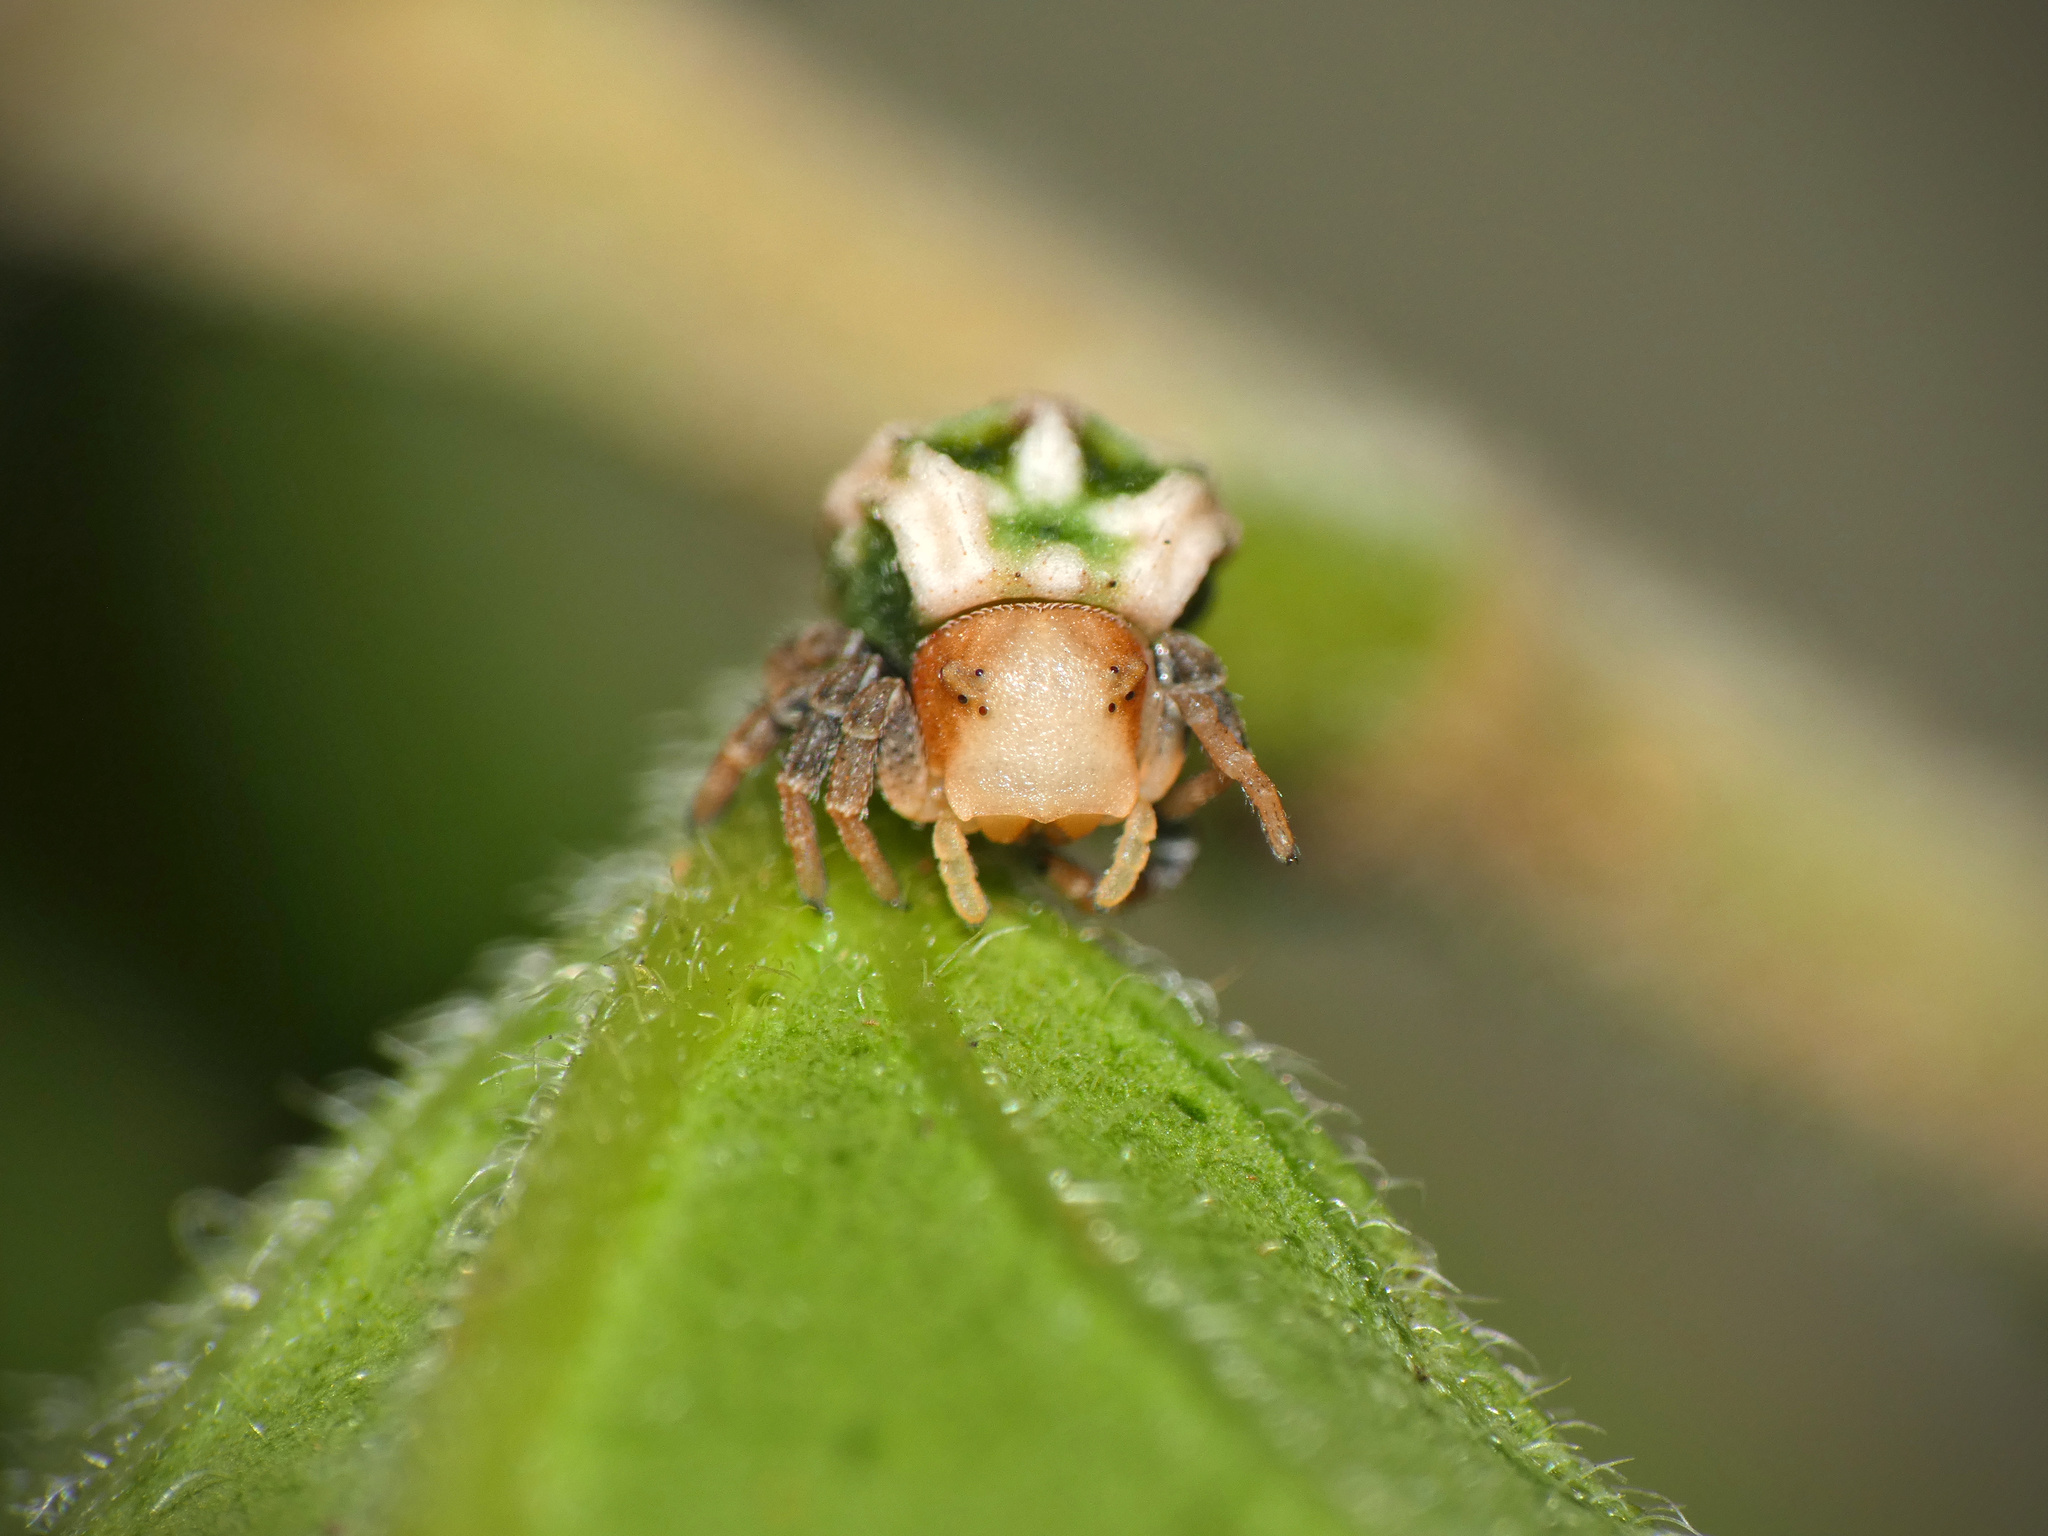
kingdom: Animalia
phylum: Arthropoda
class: Arachnida
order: Araneae
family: Thomisidae
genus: Parabomis
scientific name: Parabomis megae
